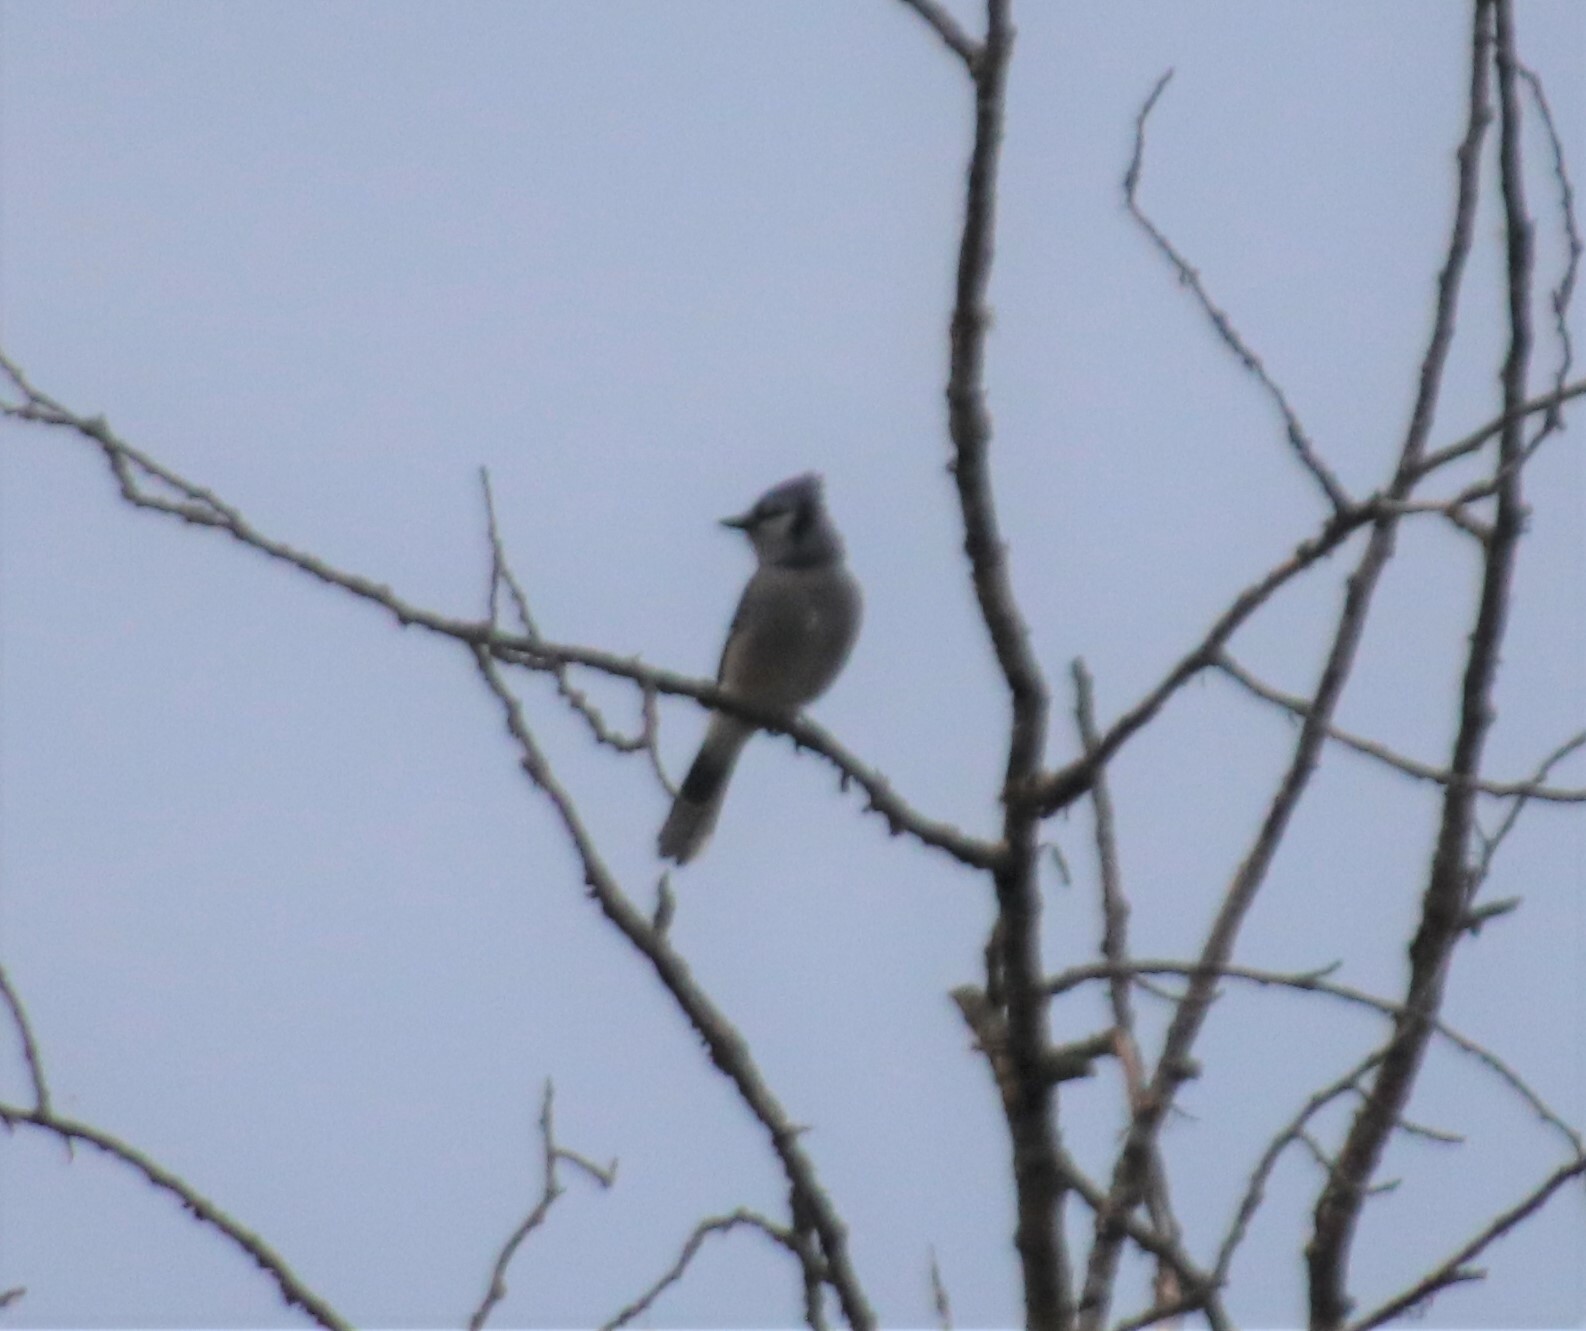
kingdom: Animalia
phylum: Chordata
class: Aves
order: Passeriformes
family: Corvidae
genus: Cyanocitta
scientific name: Cyanocitta cristata
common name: Blue jay
